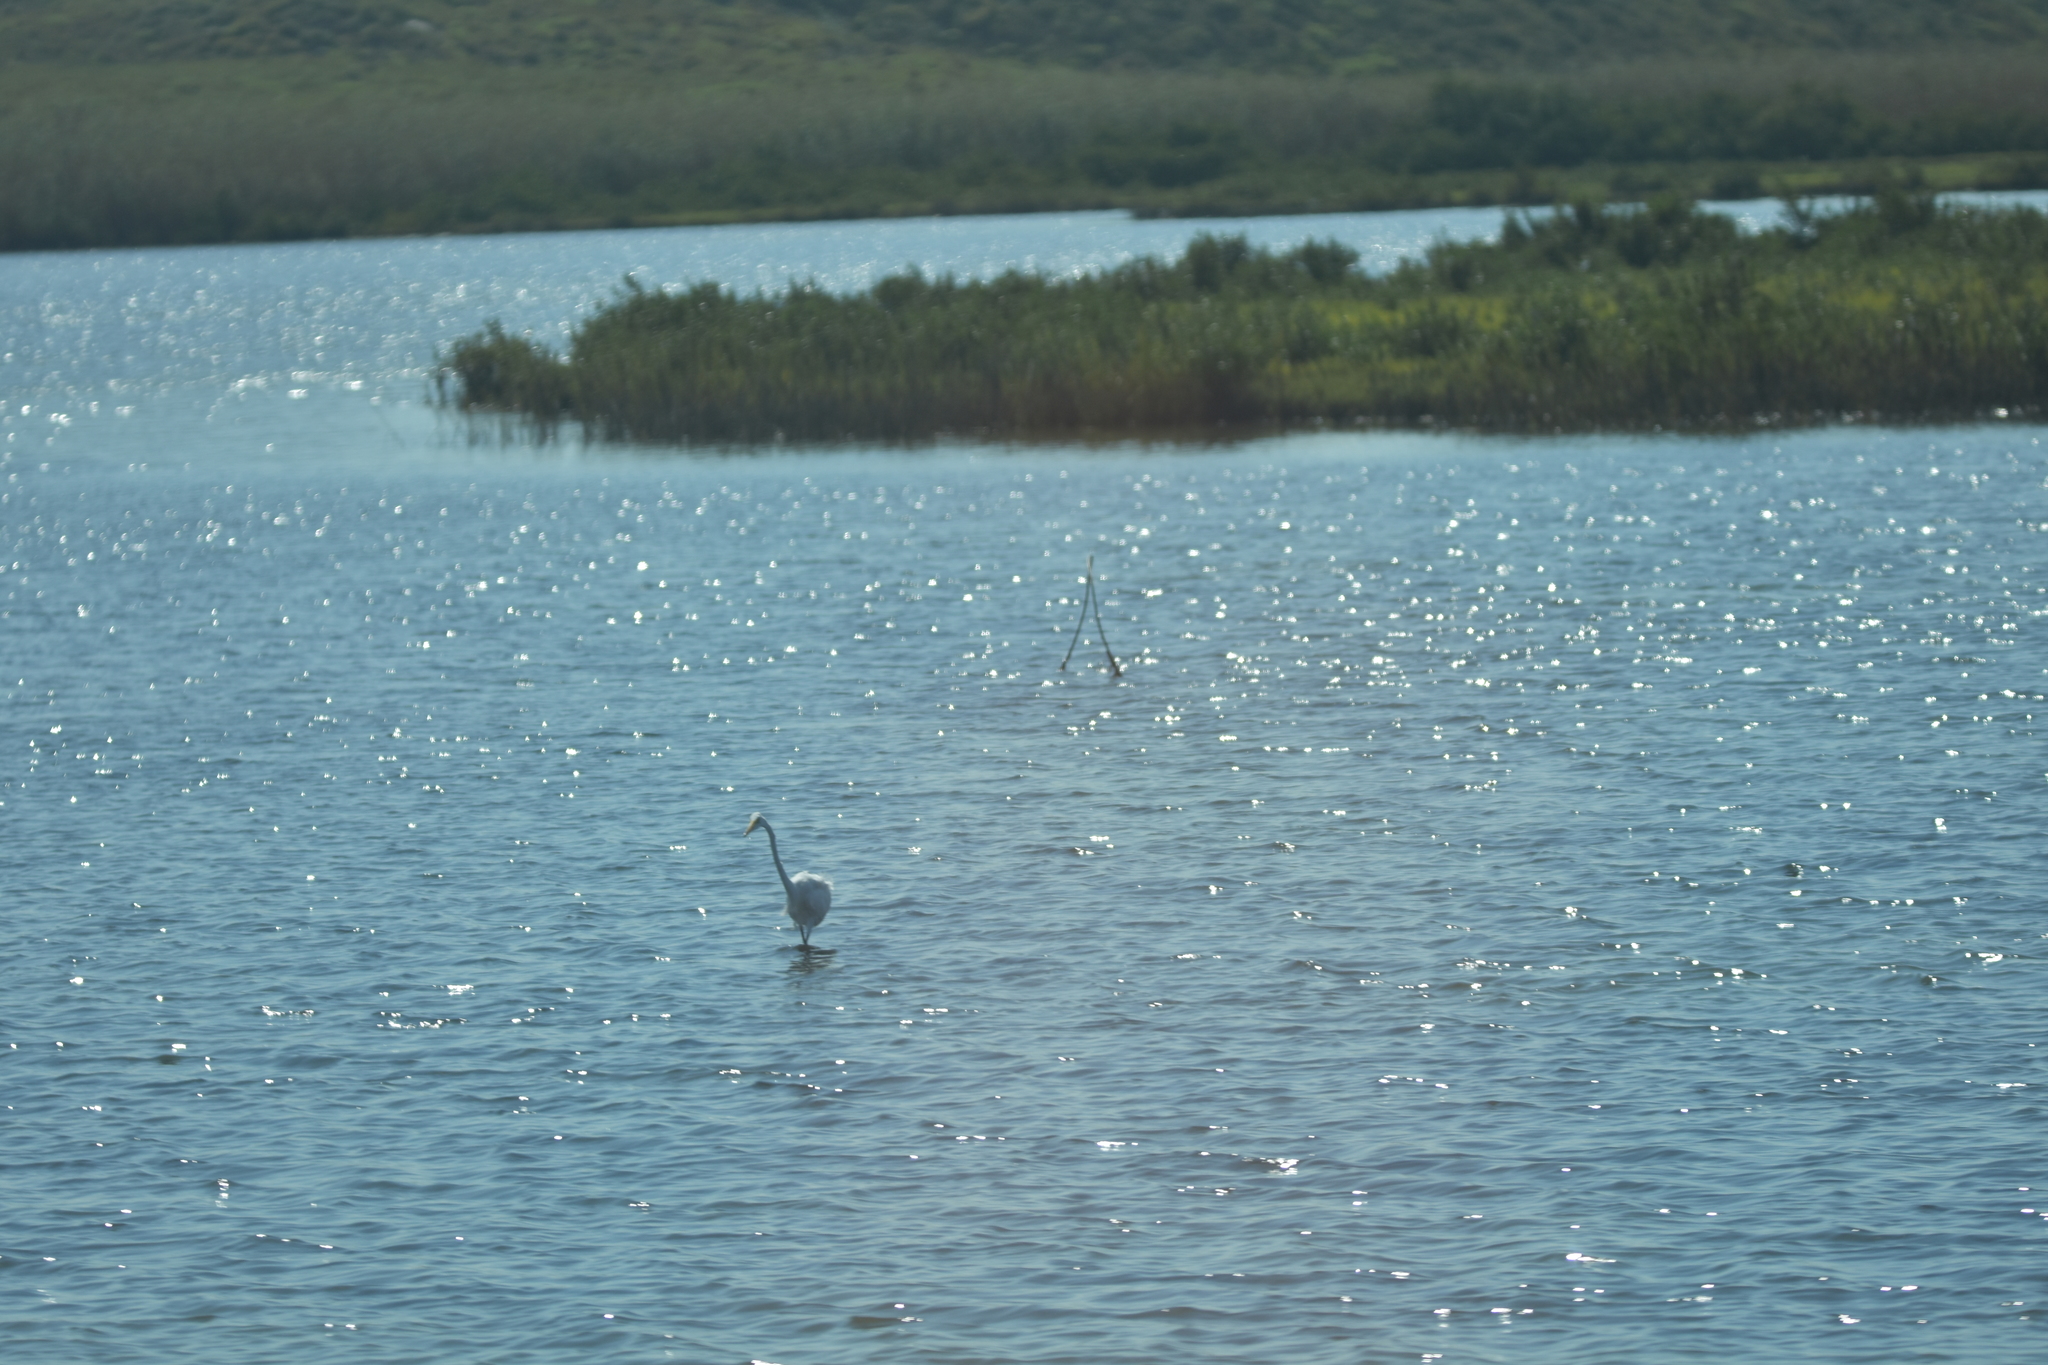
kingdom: Animalia
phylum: Chordata
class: Aves
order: Pelecaniformes
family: Ardeidae
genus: Ardea
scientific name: Ardea alba
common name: Great egret
